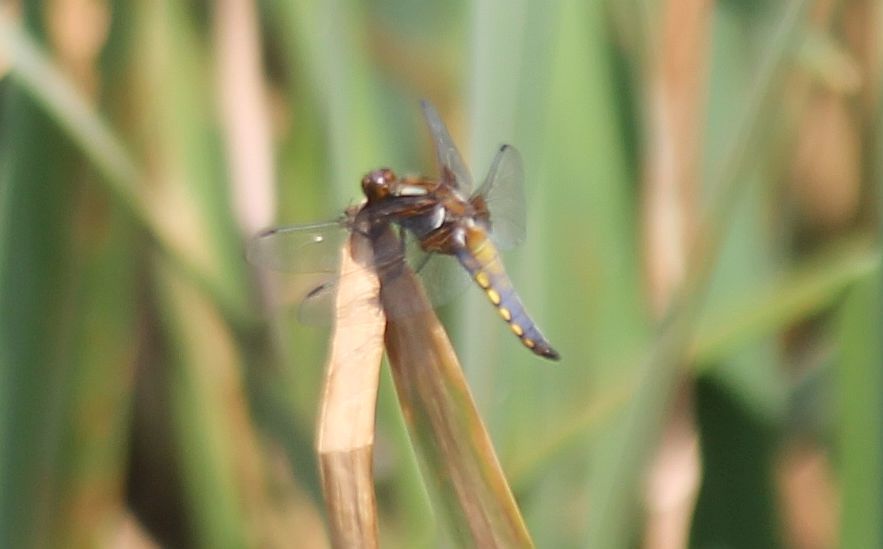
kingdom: Animalia
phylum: Arthropoda
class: Insecta
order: Odonata
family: Libellulidae
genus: Libellula
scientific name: Libellula depressa
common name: Broad-bodied chaser
